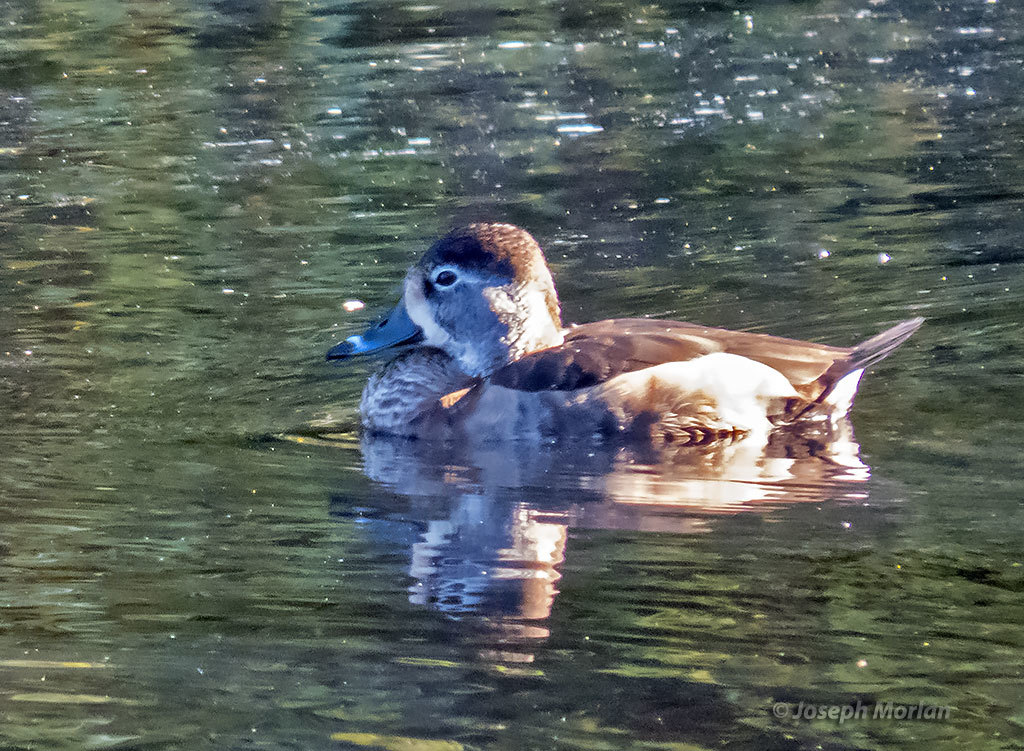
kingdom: Animalia
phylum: Chordata
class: Aves
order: Anseriformes
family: Anatidae
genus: Aythya
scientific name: Aythya collaris
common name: Ring-necked duck
